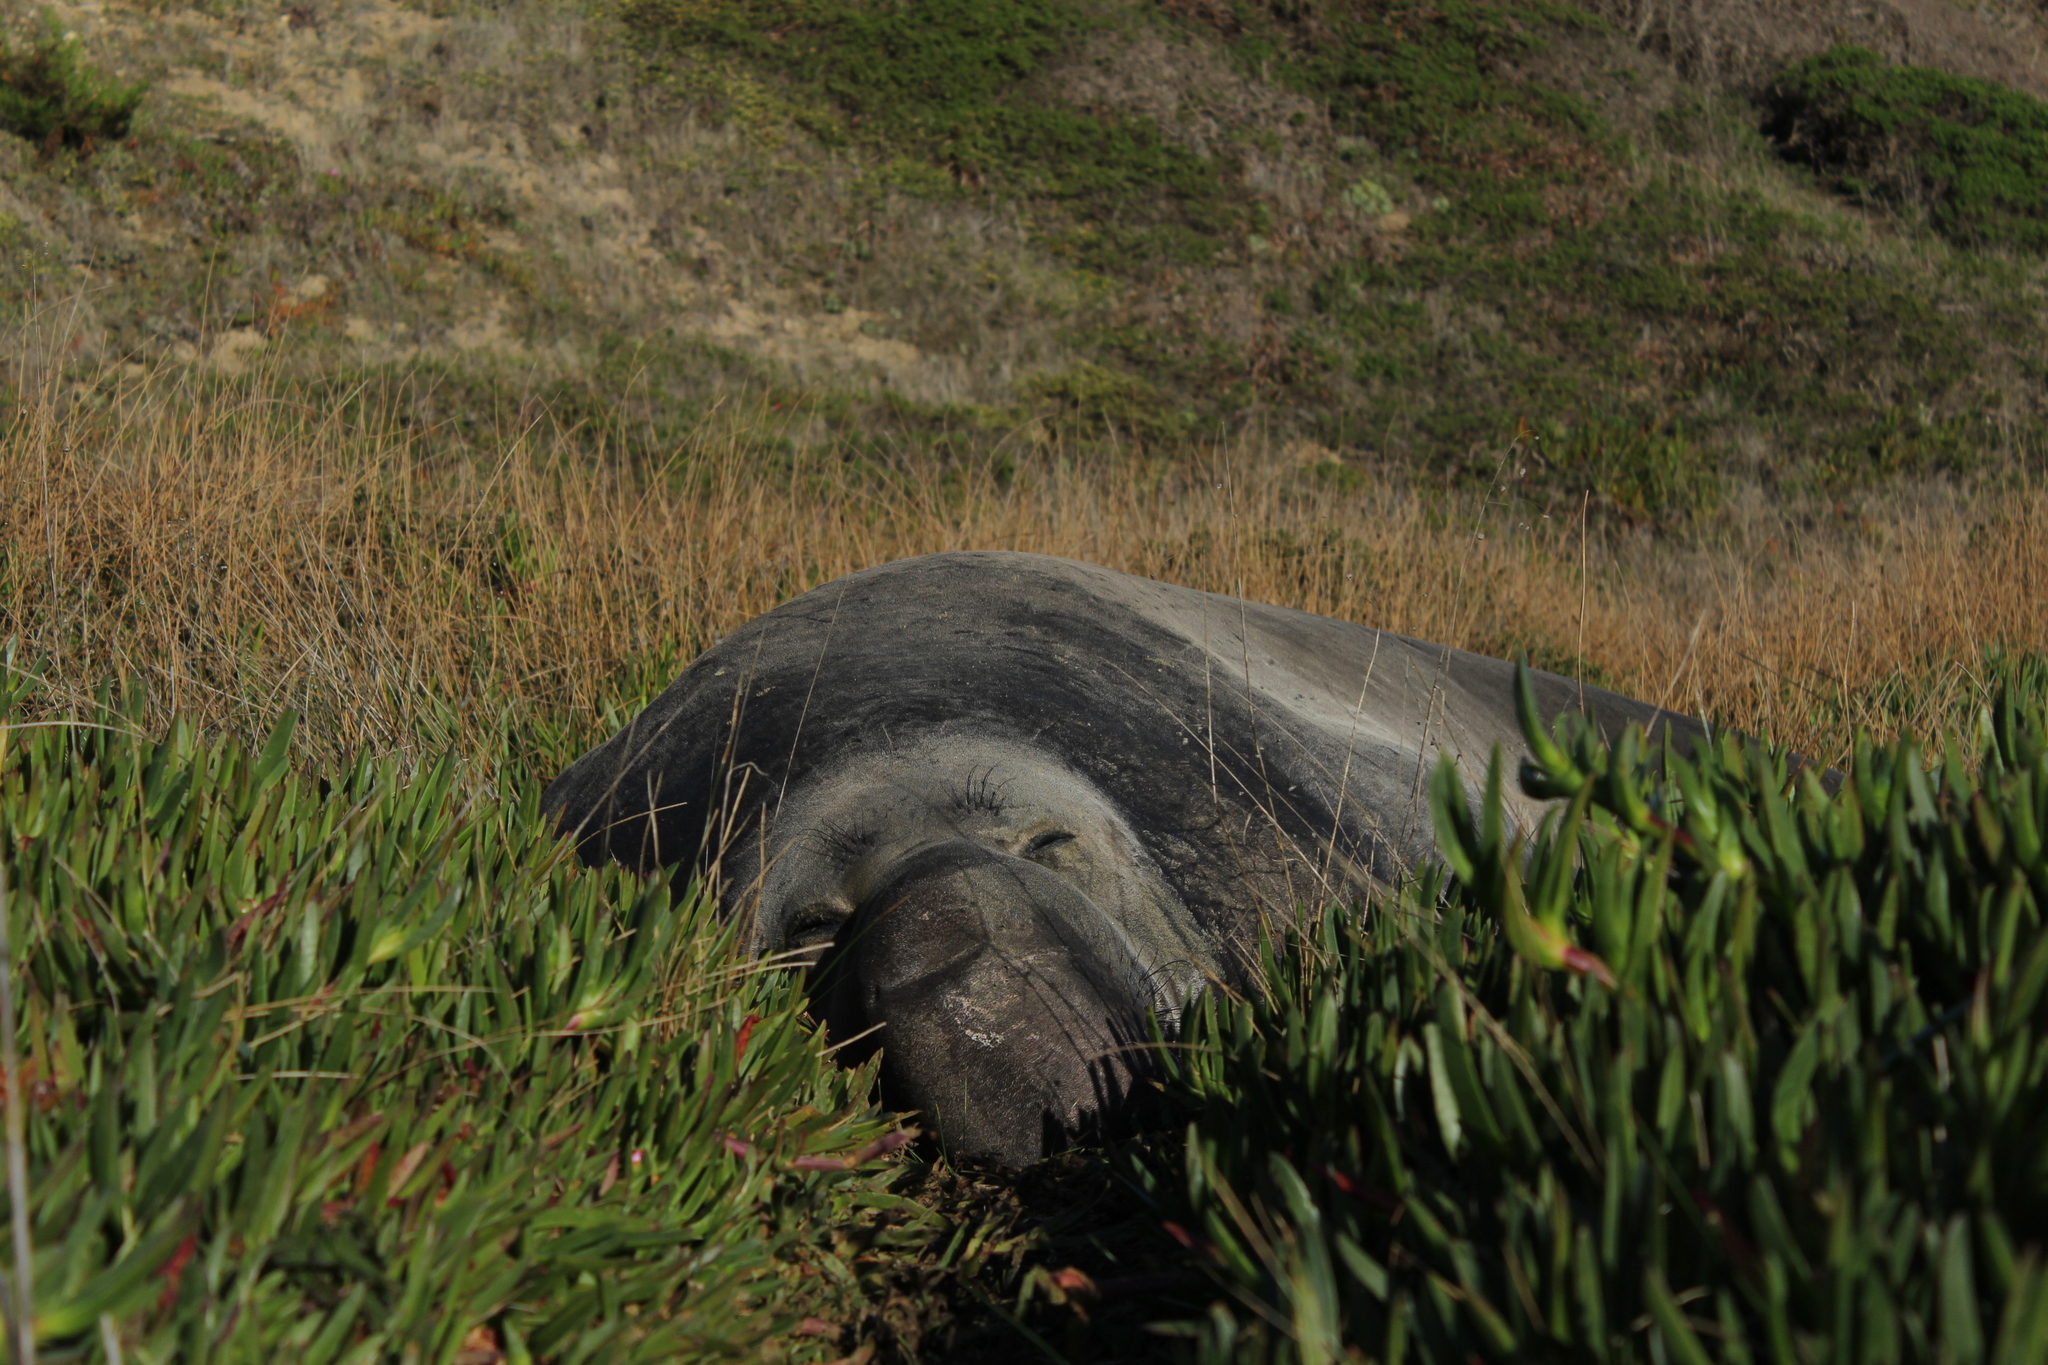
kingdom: Animalia
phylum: Chordata
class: Mammalia
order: Carnivora
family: Phocidae
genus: Mirounga
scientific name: Mirounga angustirostris
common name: Northern elephant seal
